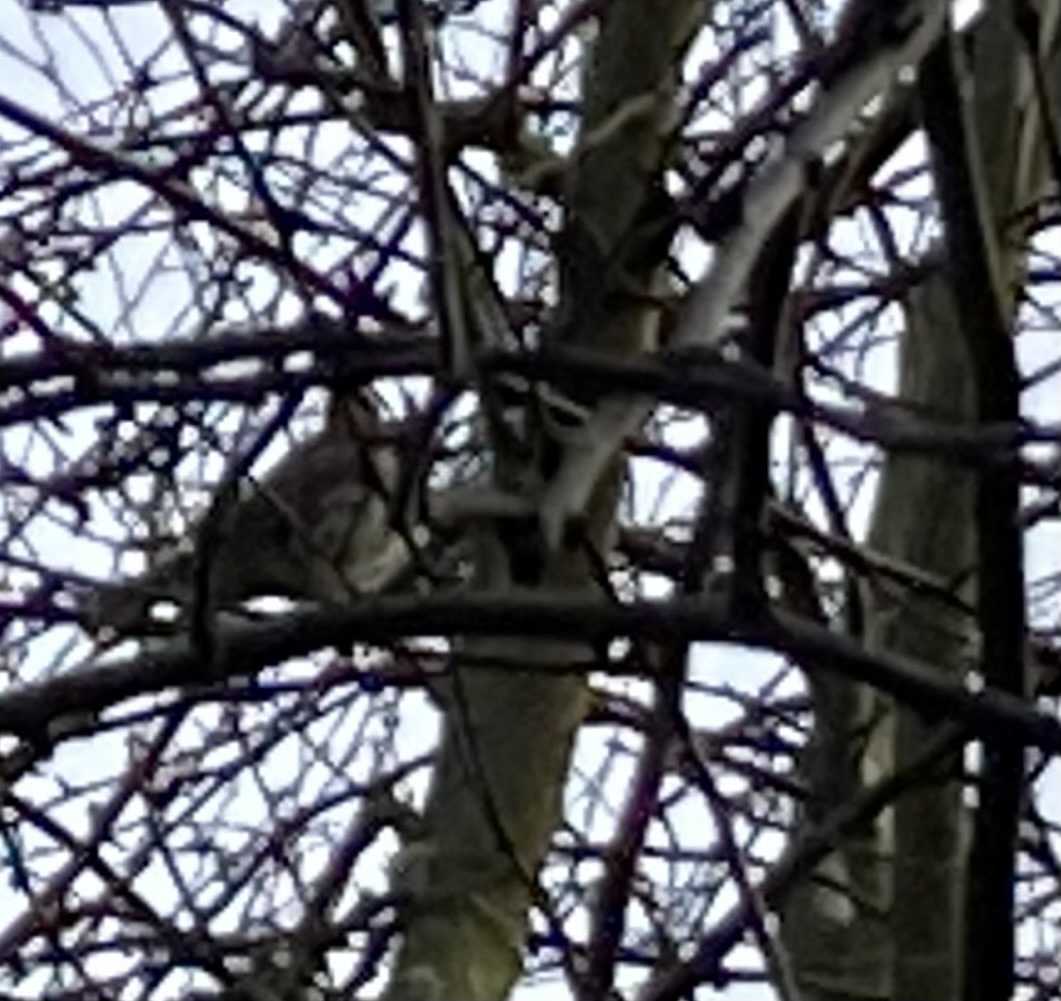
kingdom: Animalia
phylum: Chordata
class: Aves
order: Passeriformes
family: Turdidae
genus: Turdus
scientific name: Turdus iliacus
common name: Redwing
